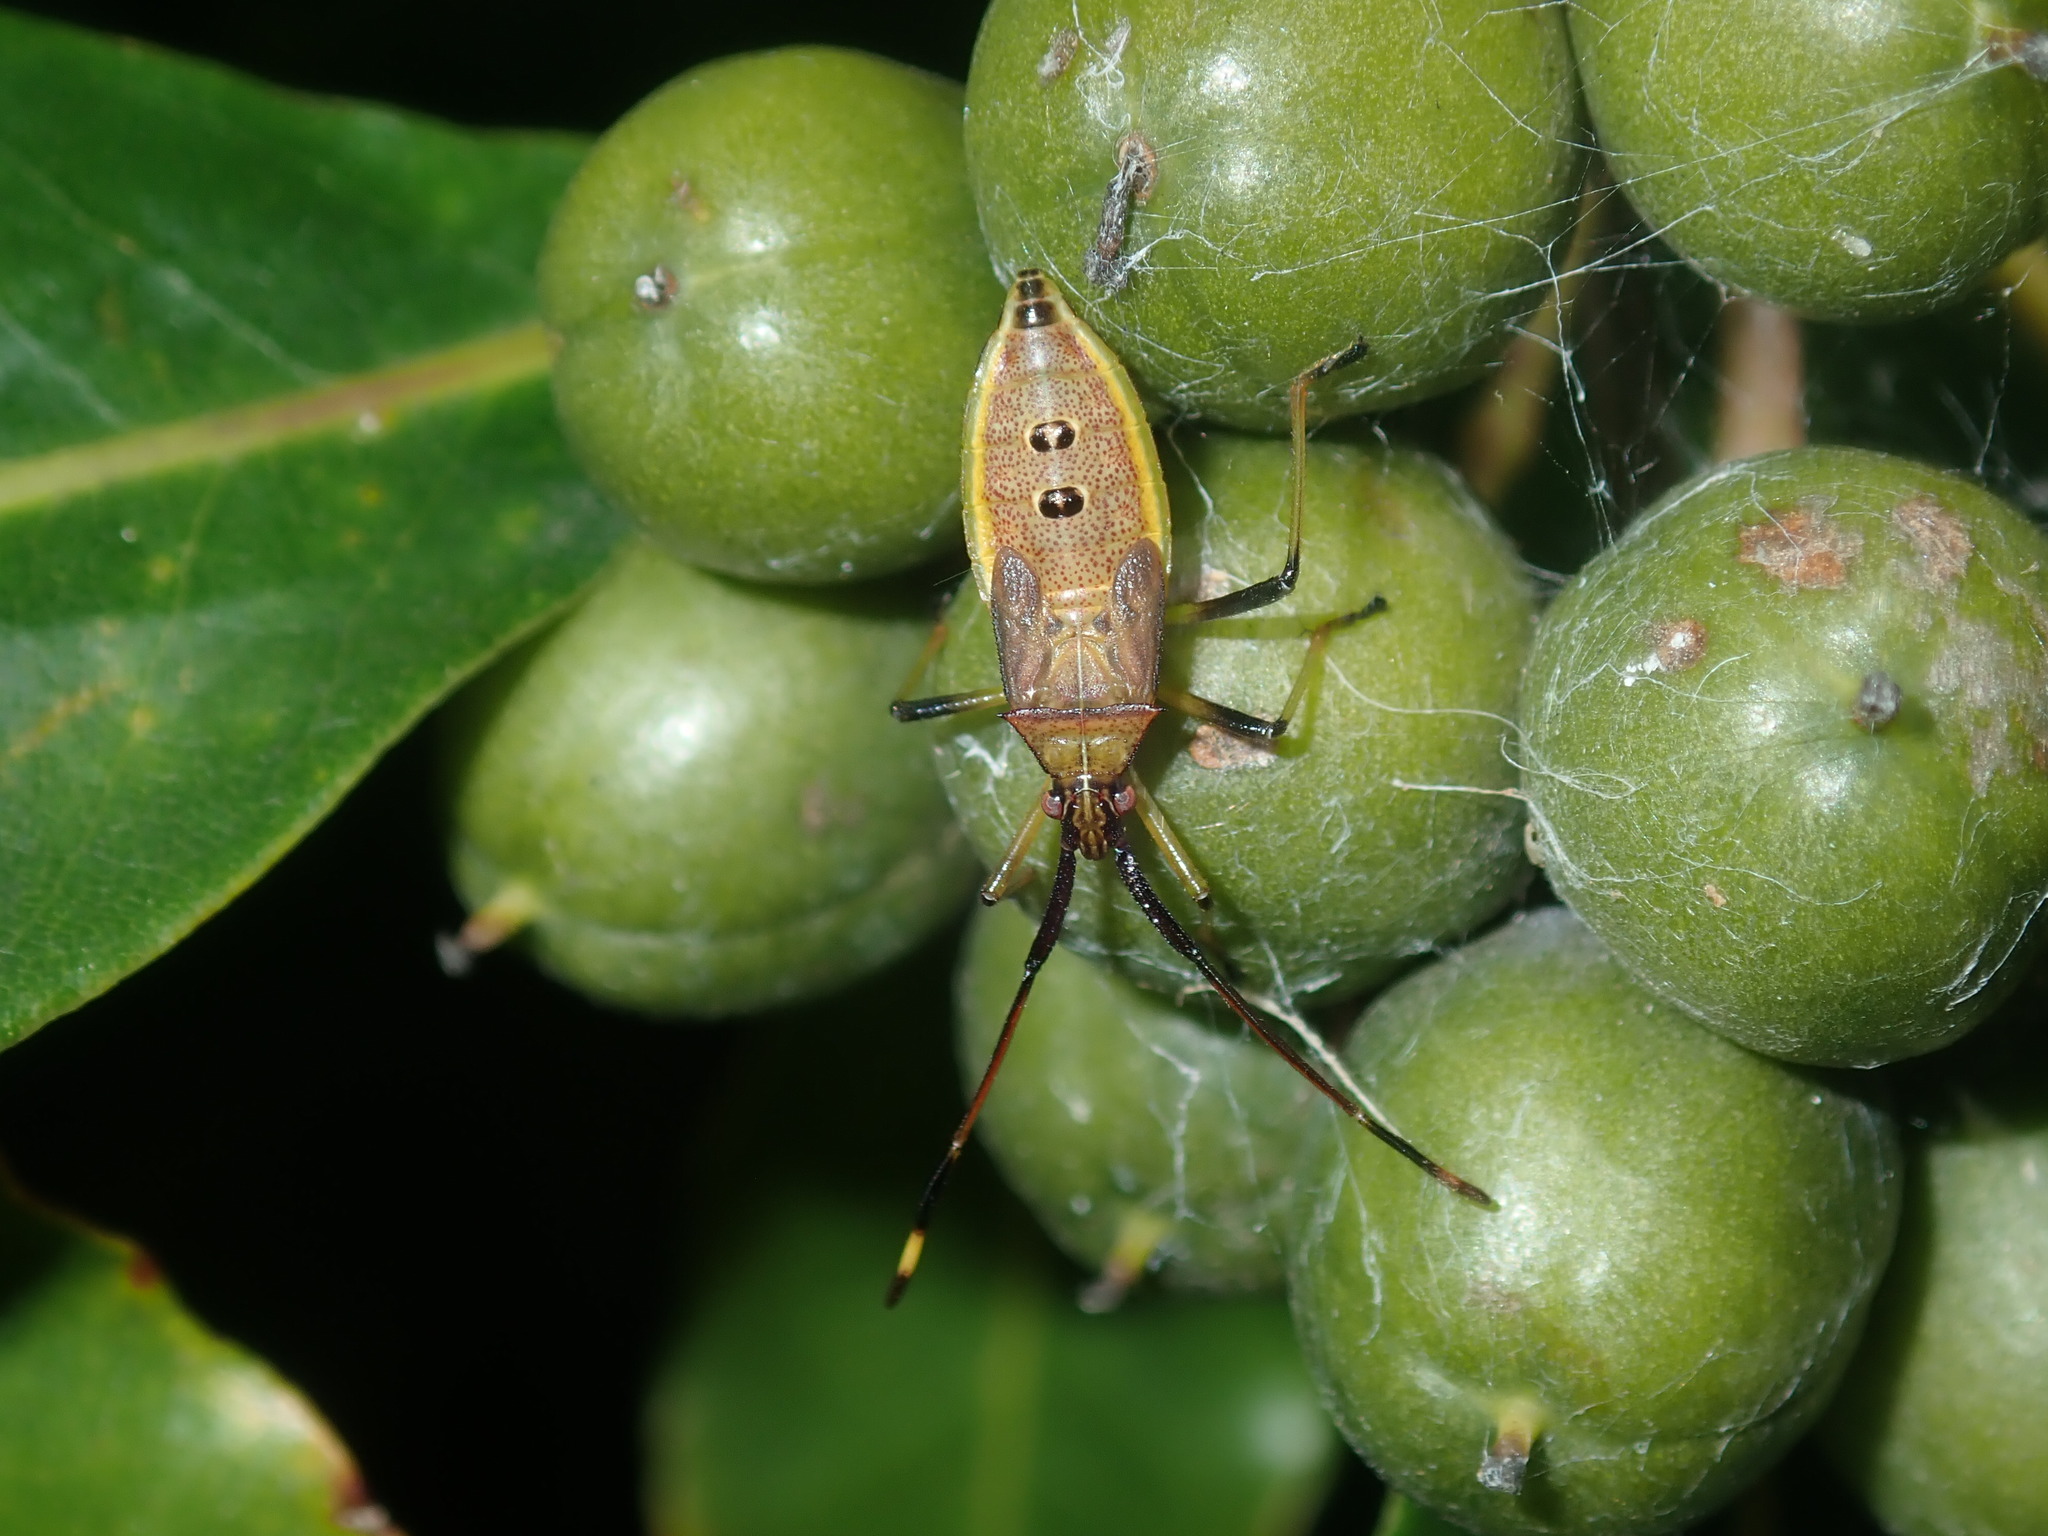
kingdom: Animalia
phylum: Arthropoda
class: Insecta
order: Hemiptera
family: Coreidae
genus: Amblypelta
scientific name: Amblypelta nitida
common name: Fruitspotting bug
